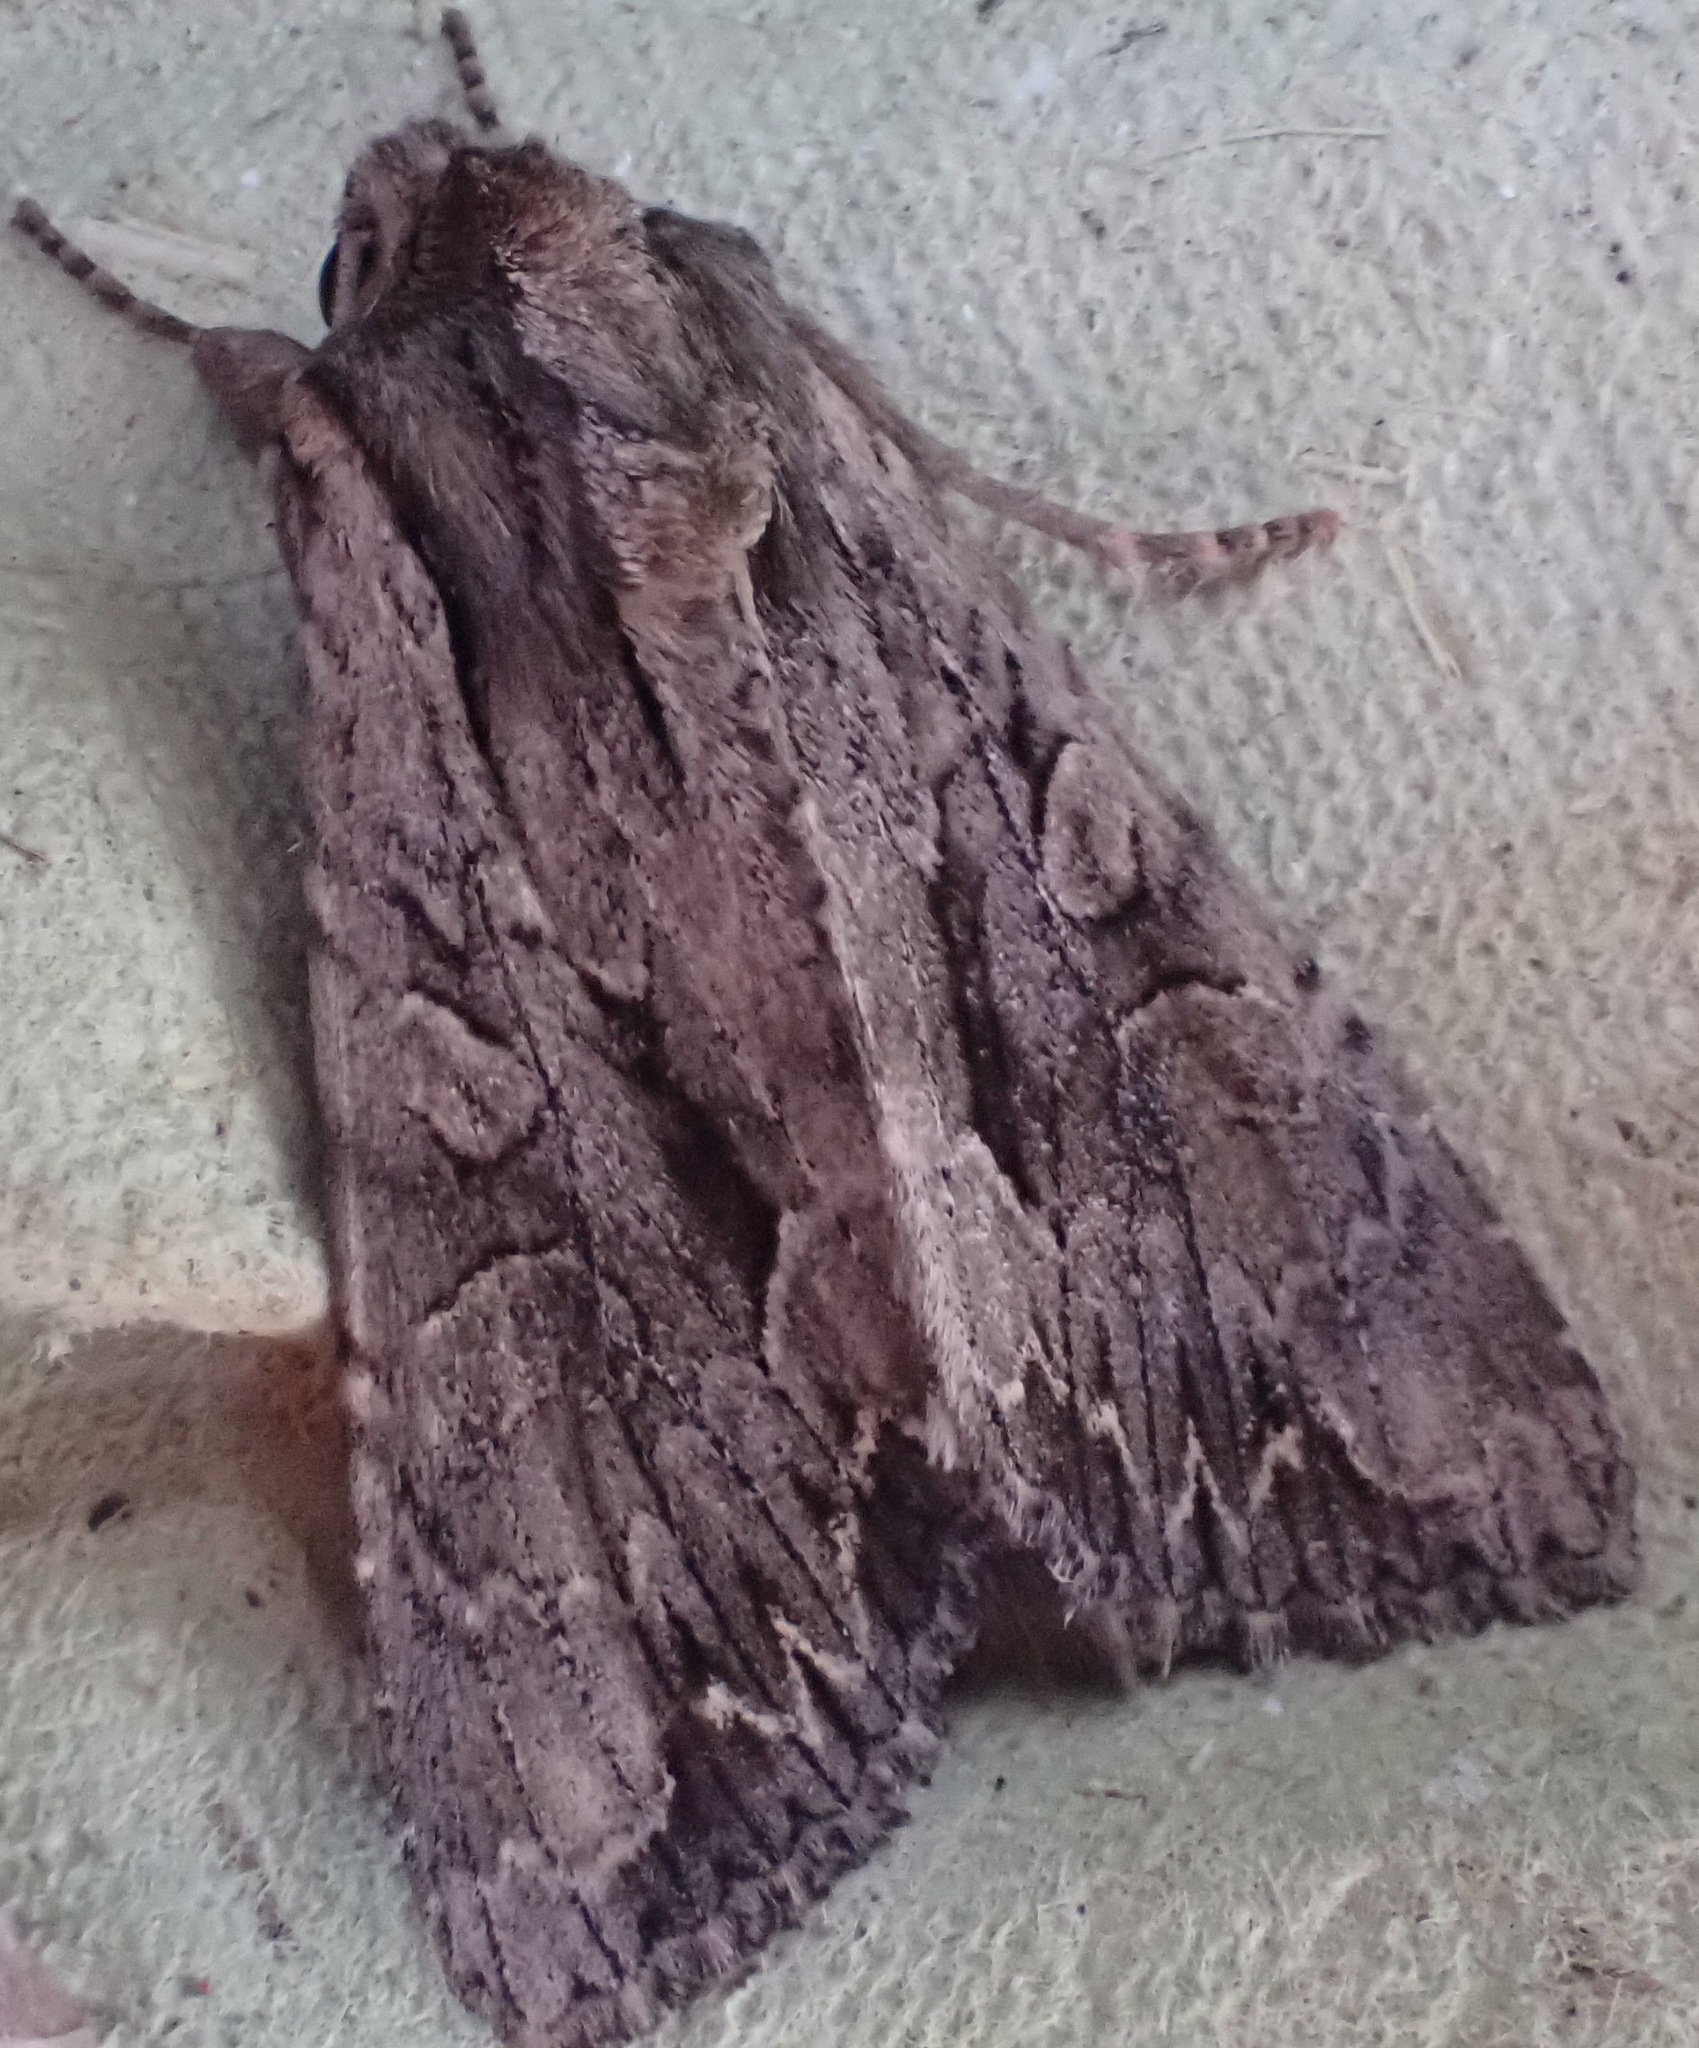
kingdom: Animalia
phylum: Arthropoda
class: Insecta
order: Lepidoptera
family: Noctuidae
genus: Apamea
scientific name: Apamea monoglypha
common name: Dark arches
